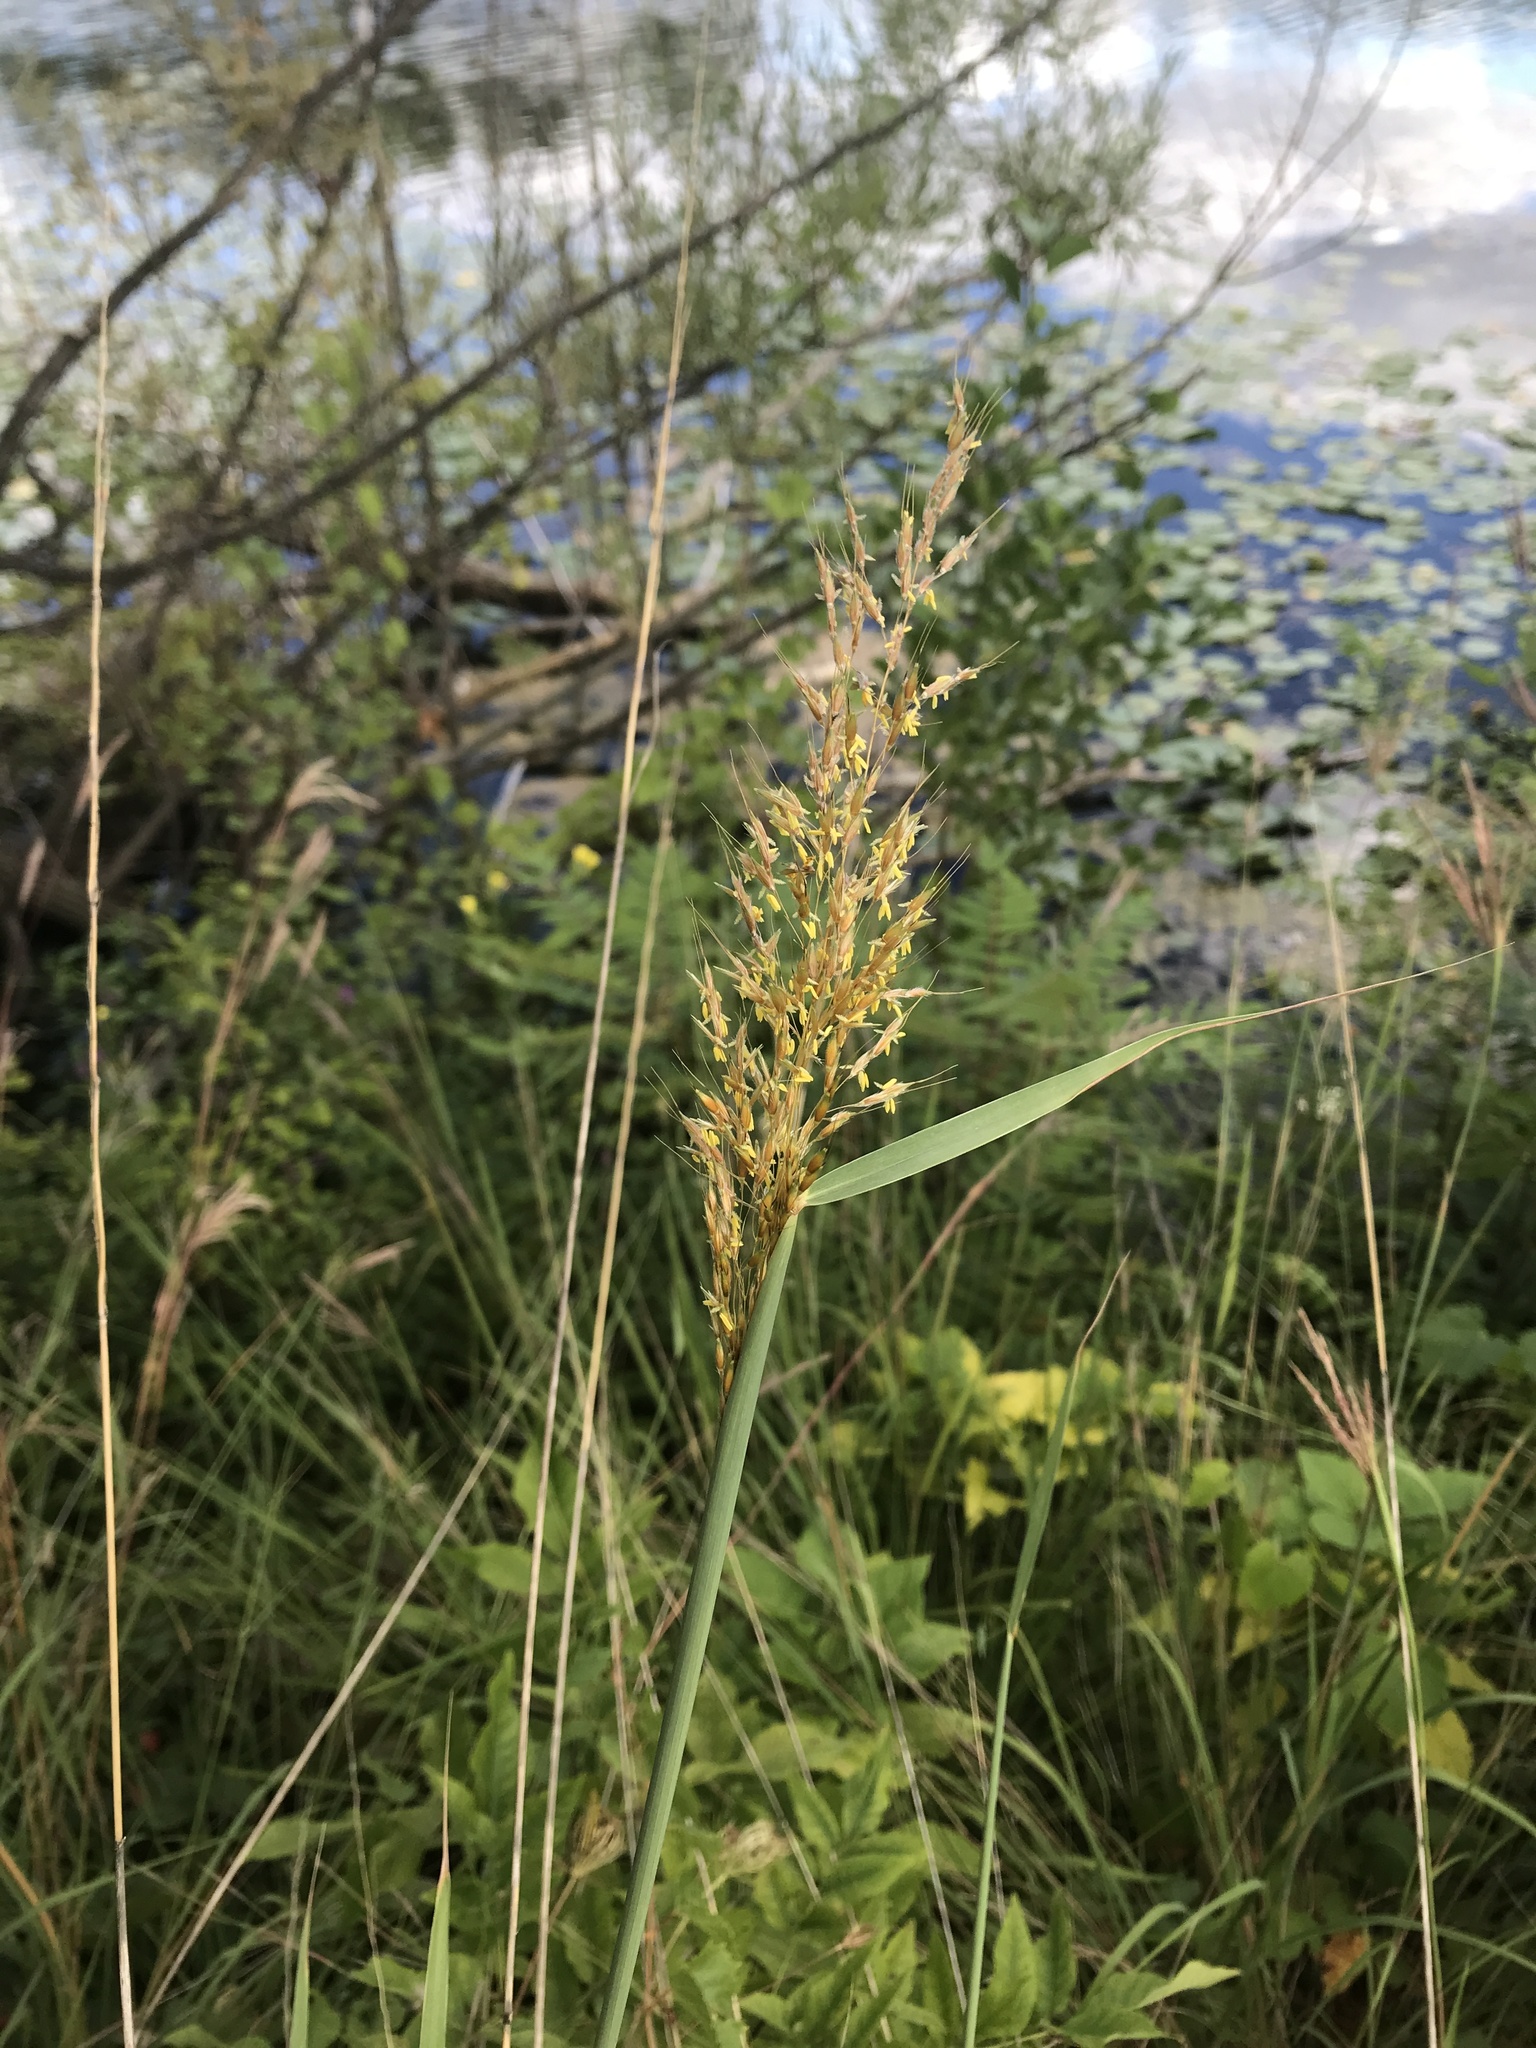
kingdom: Plantae
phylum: Tracheophyta
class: Liliopsida
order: Poales
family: Poaceae
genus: Sorghastrum
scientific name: Sorghastrum nutans
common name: Indian grass
